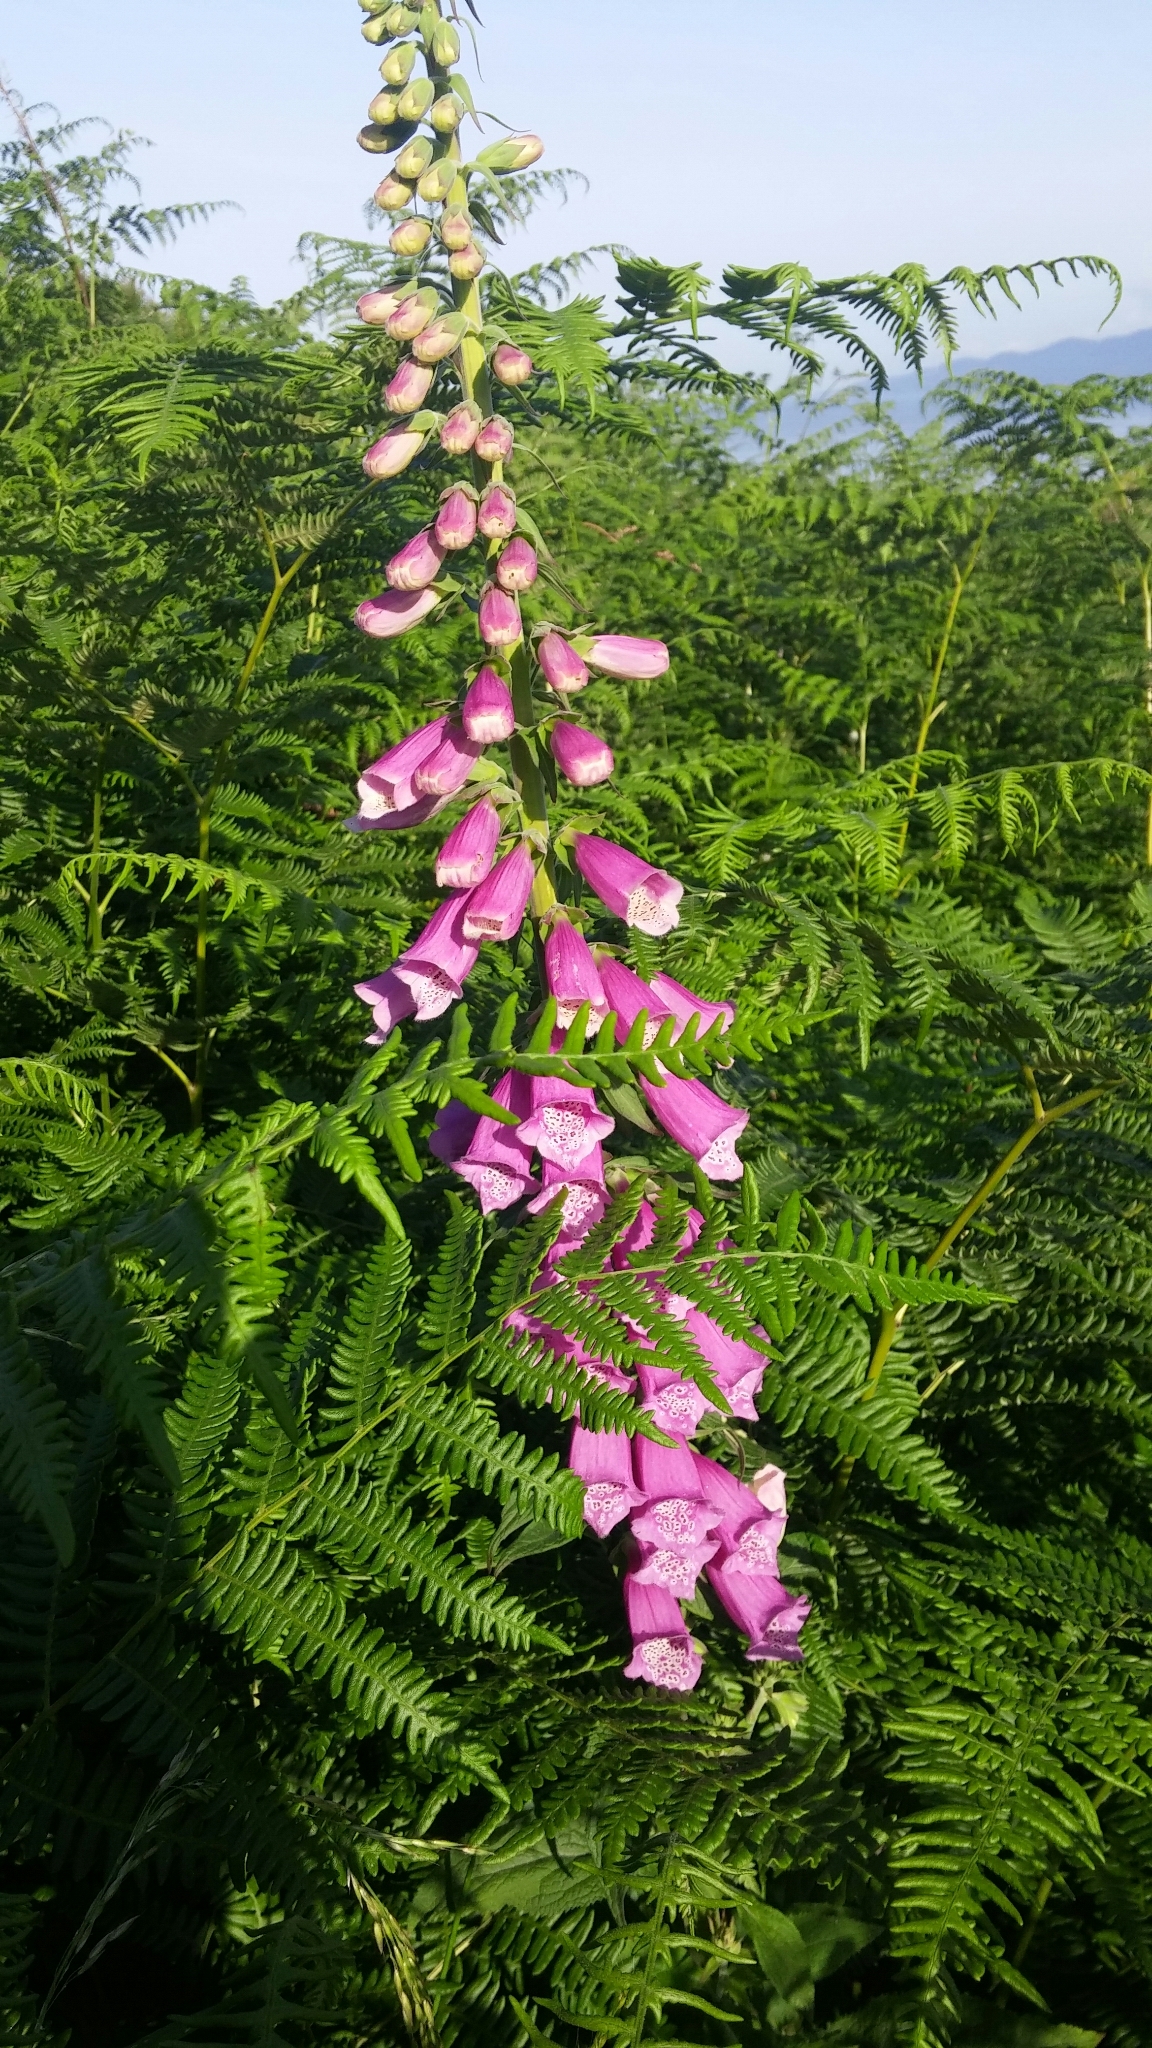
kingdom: Plantae
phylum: Tracheophyta
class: Magnoliopsida
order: Lamiales
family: Plantaginaceae
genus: Digitalis
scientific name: Digitalis purpurea
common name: Foxglove
